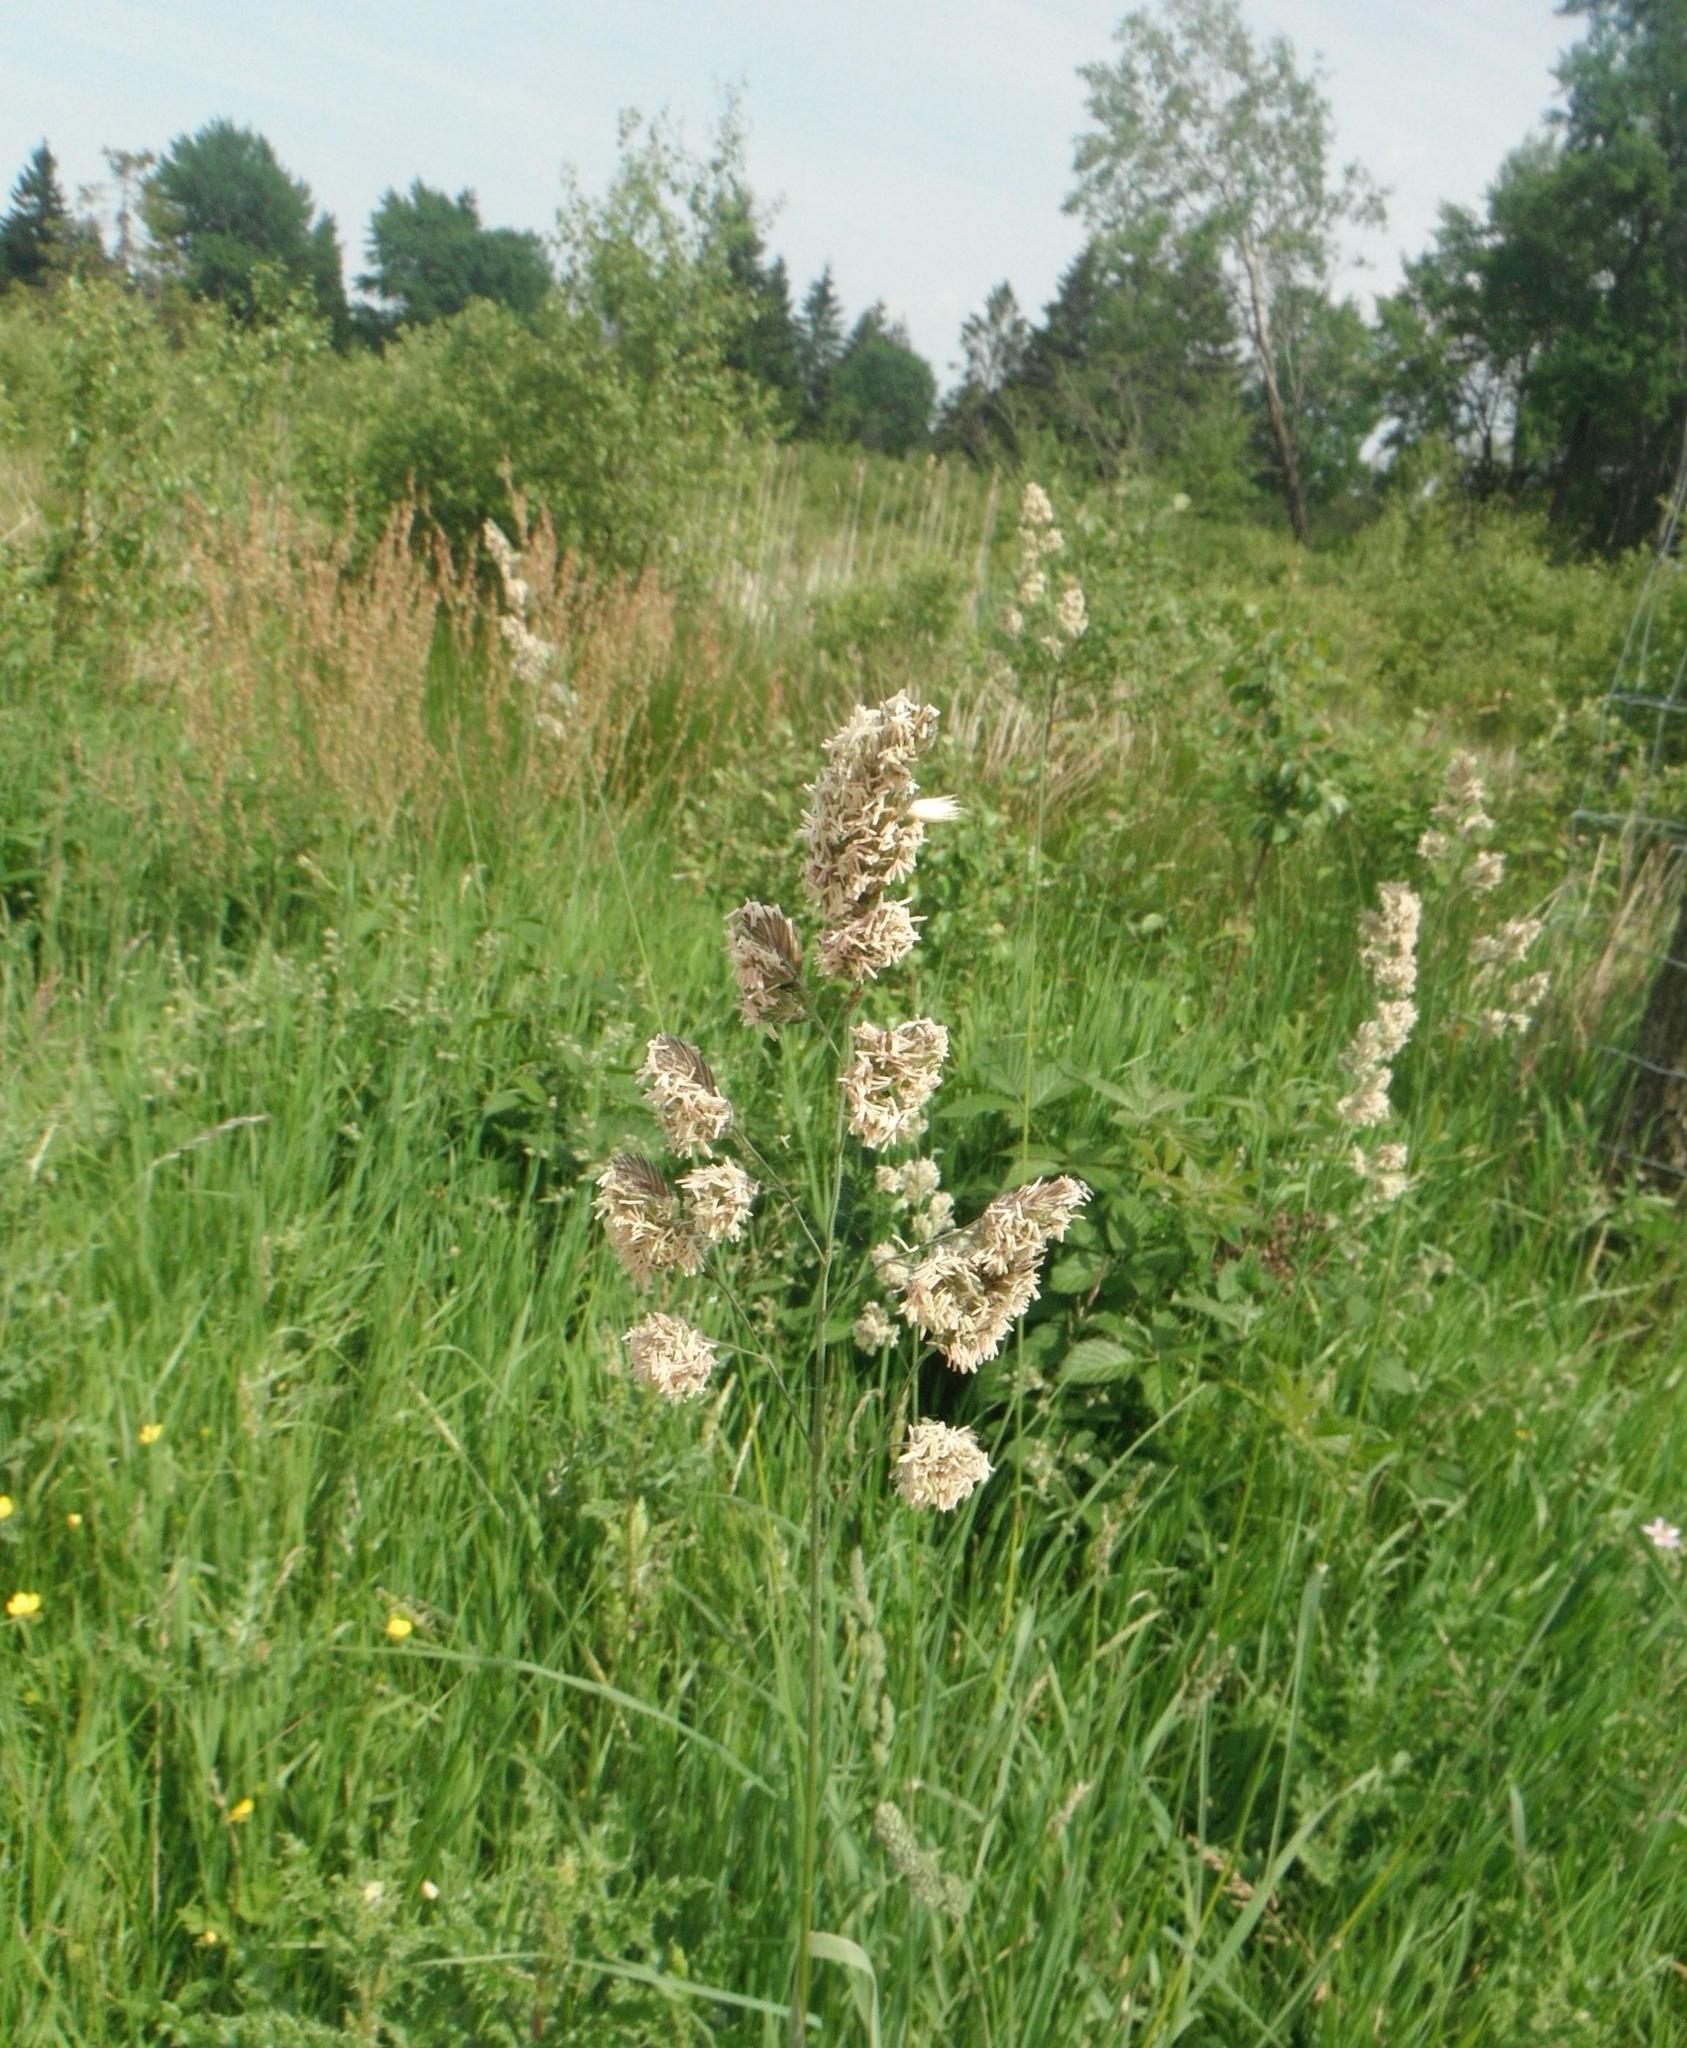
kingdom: Plantae
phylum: Tracheophyta
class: Liliopsida
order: Poales
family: Poaceae
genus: Dactylis
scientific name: Dactylis glomerata
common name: Orchardgrass
